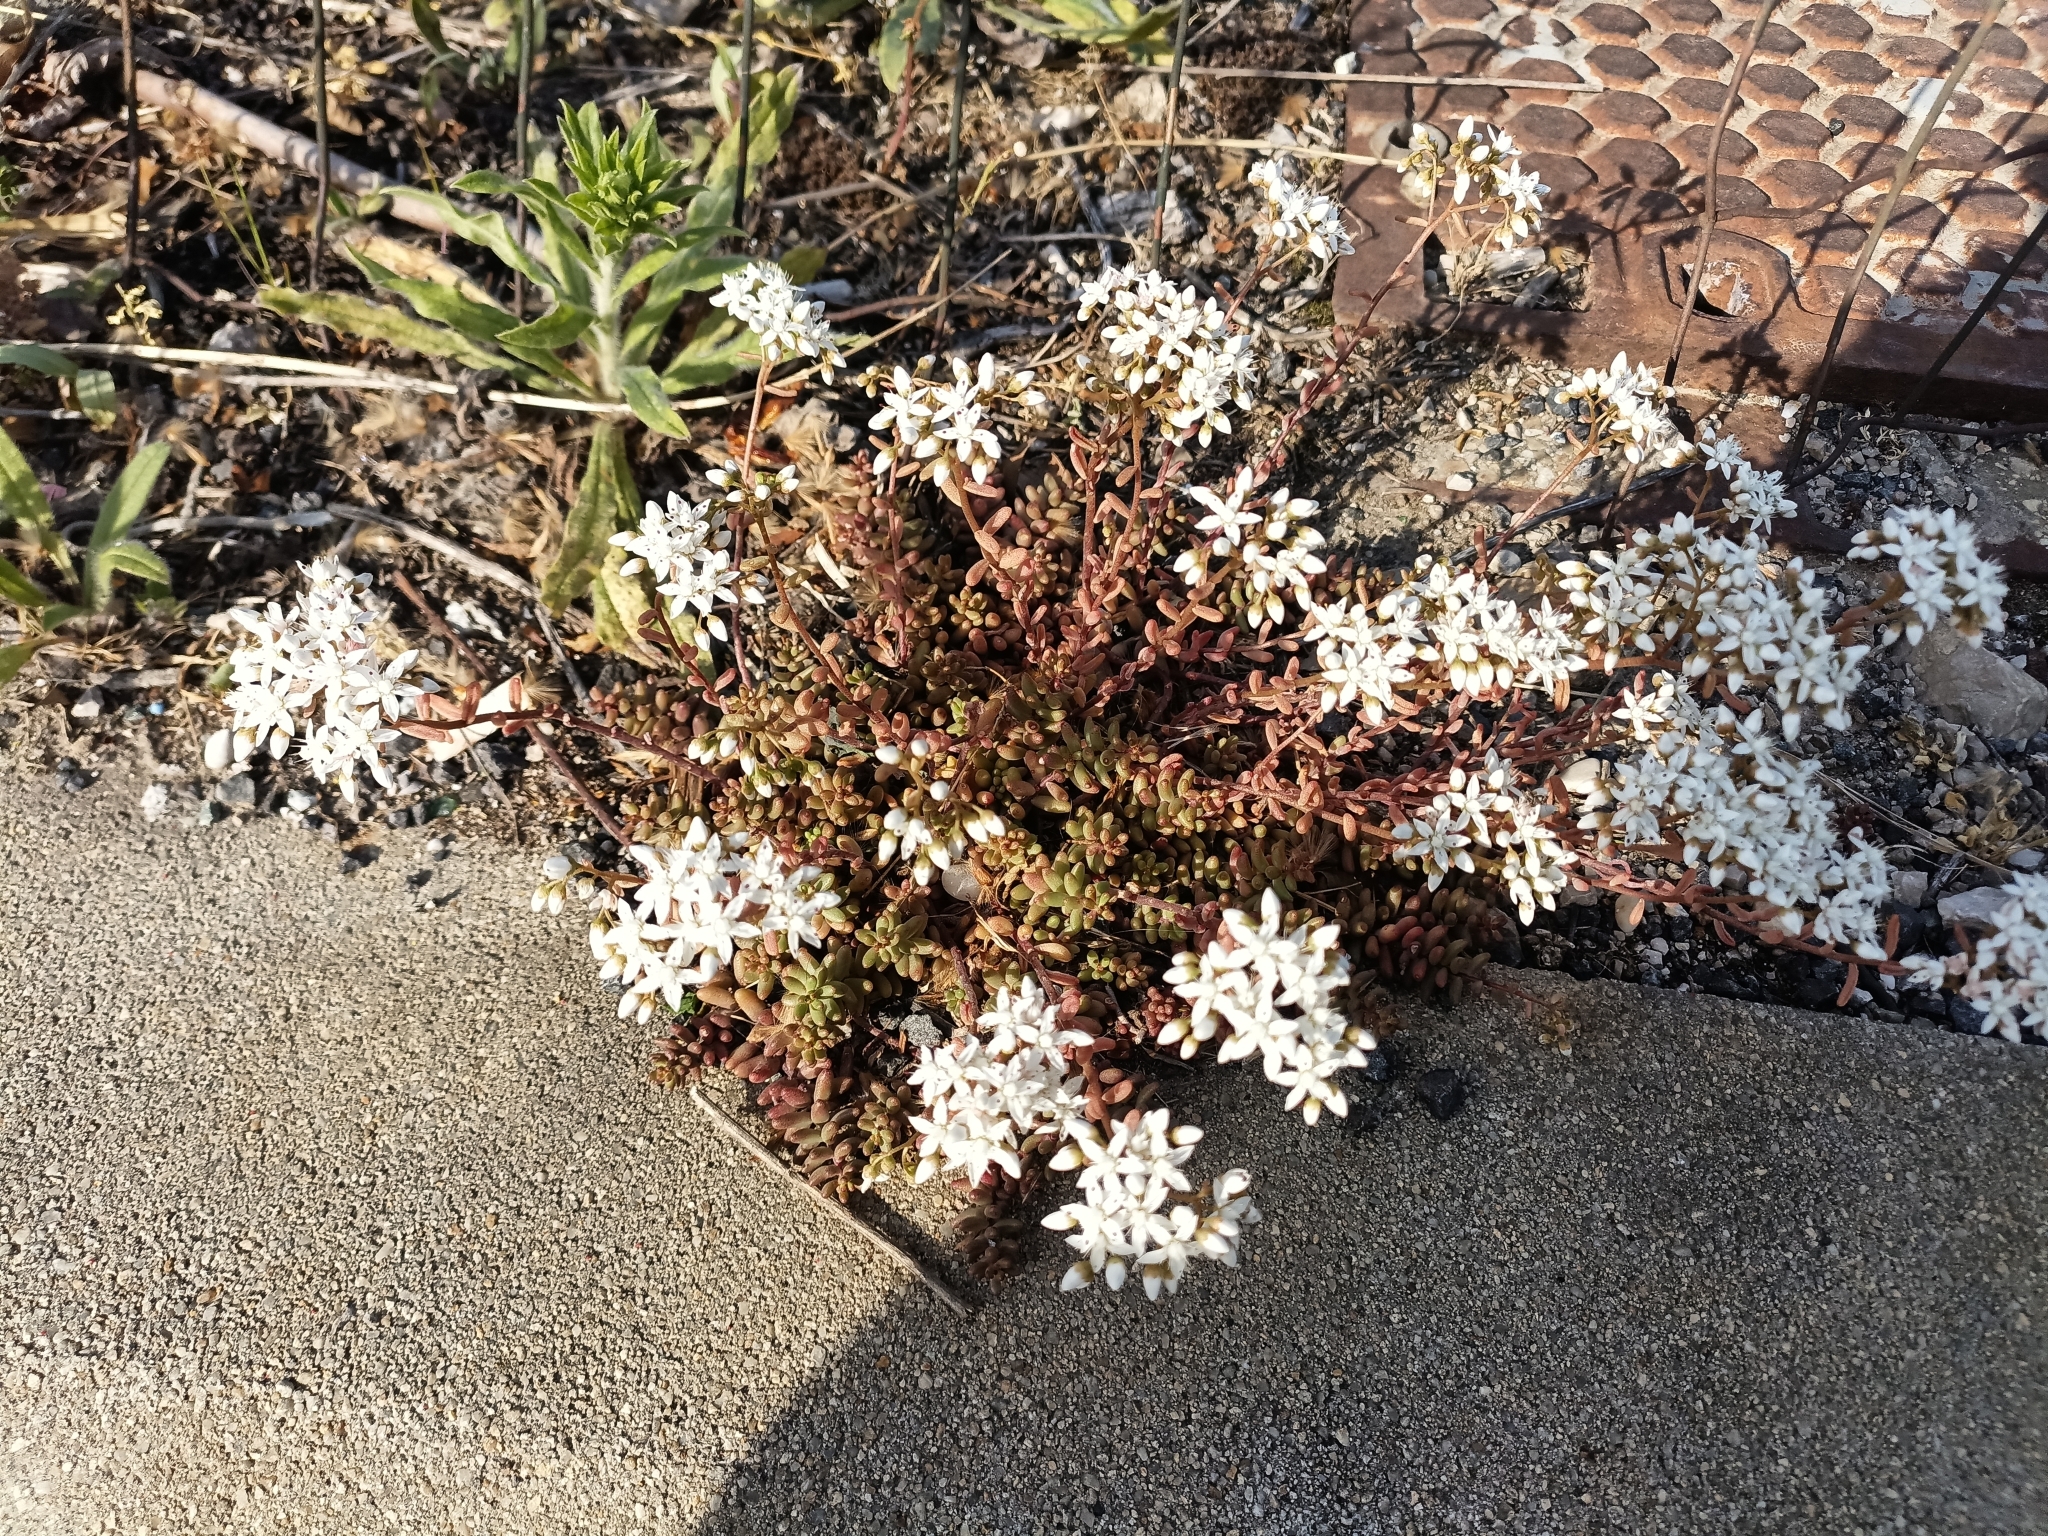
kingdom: Plantae
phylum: Tracheophyta
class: Magnoliopsida
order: Saxifragales
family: Crassulaceae
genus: Sedum
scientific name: Sedum album
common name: White stonecrop
